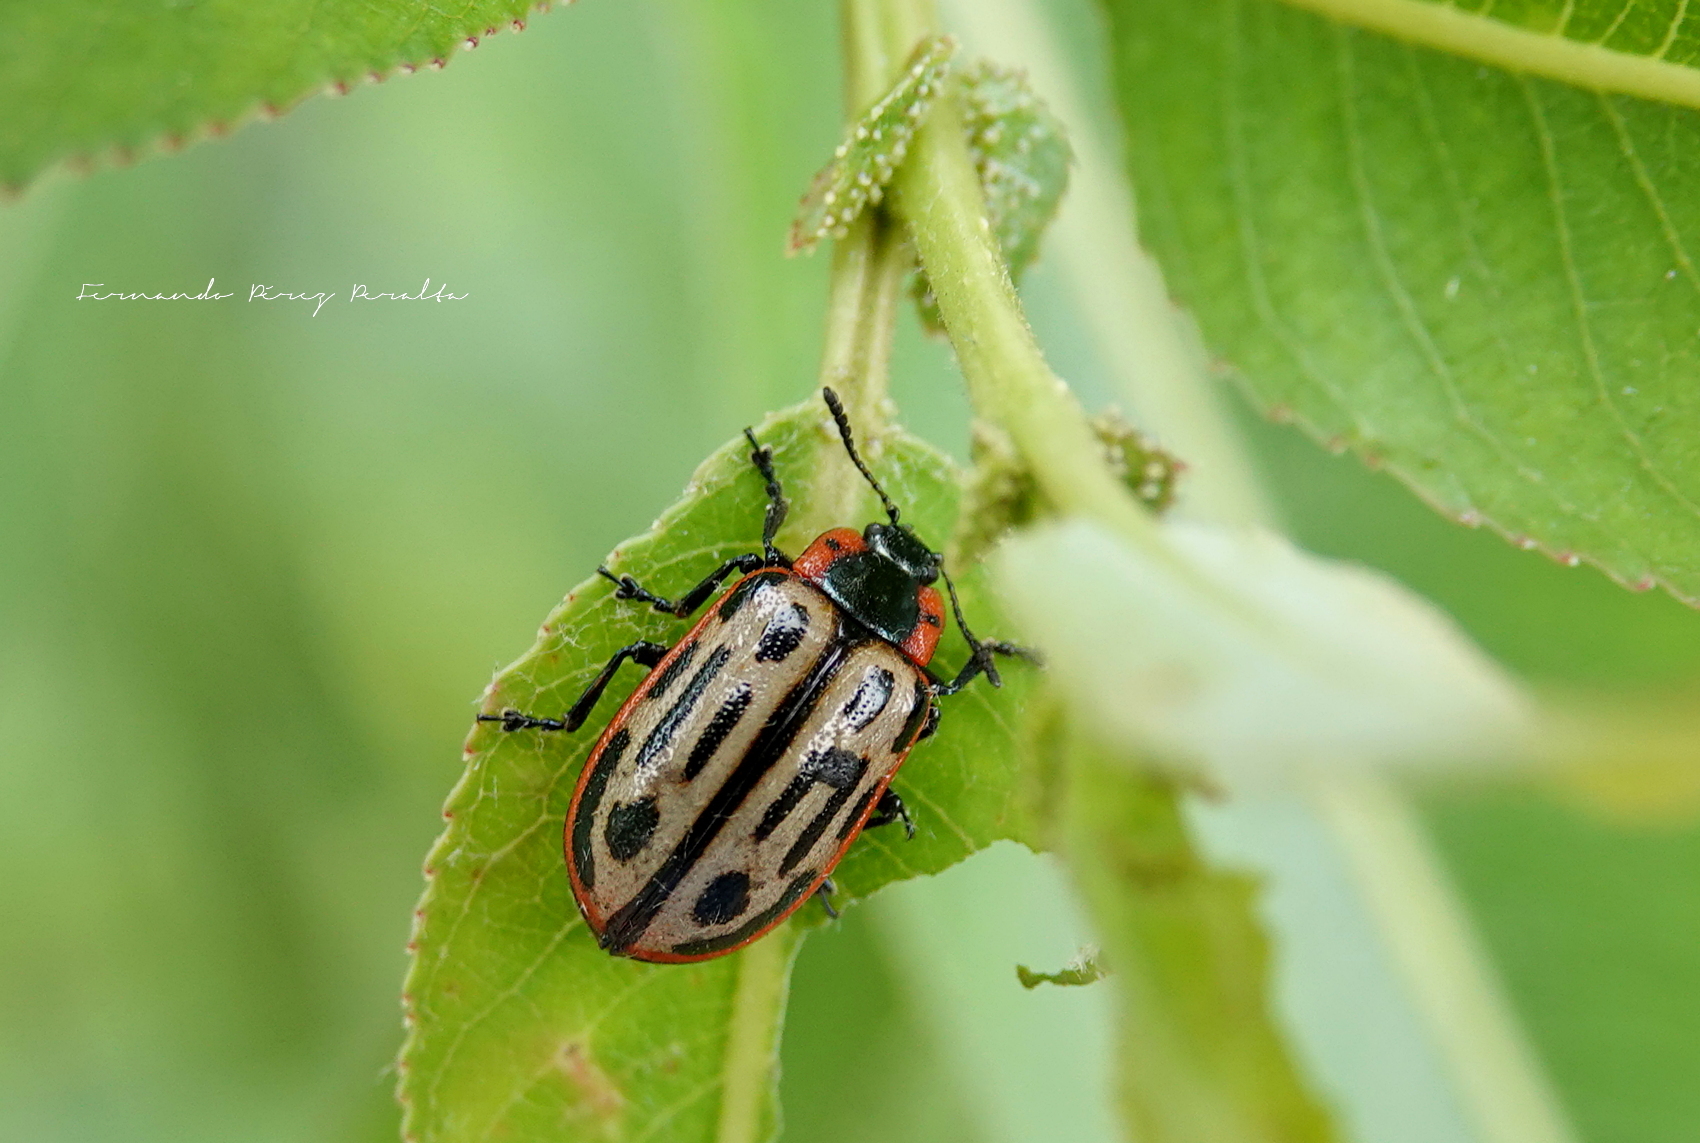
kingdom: Animalia
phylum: Arthropoda
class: Insecta
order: Coleoptera
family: Chrysomelidae
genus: Aethiopocassis
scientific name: Aethiopocassis scripta
